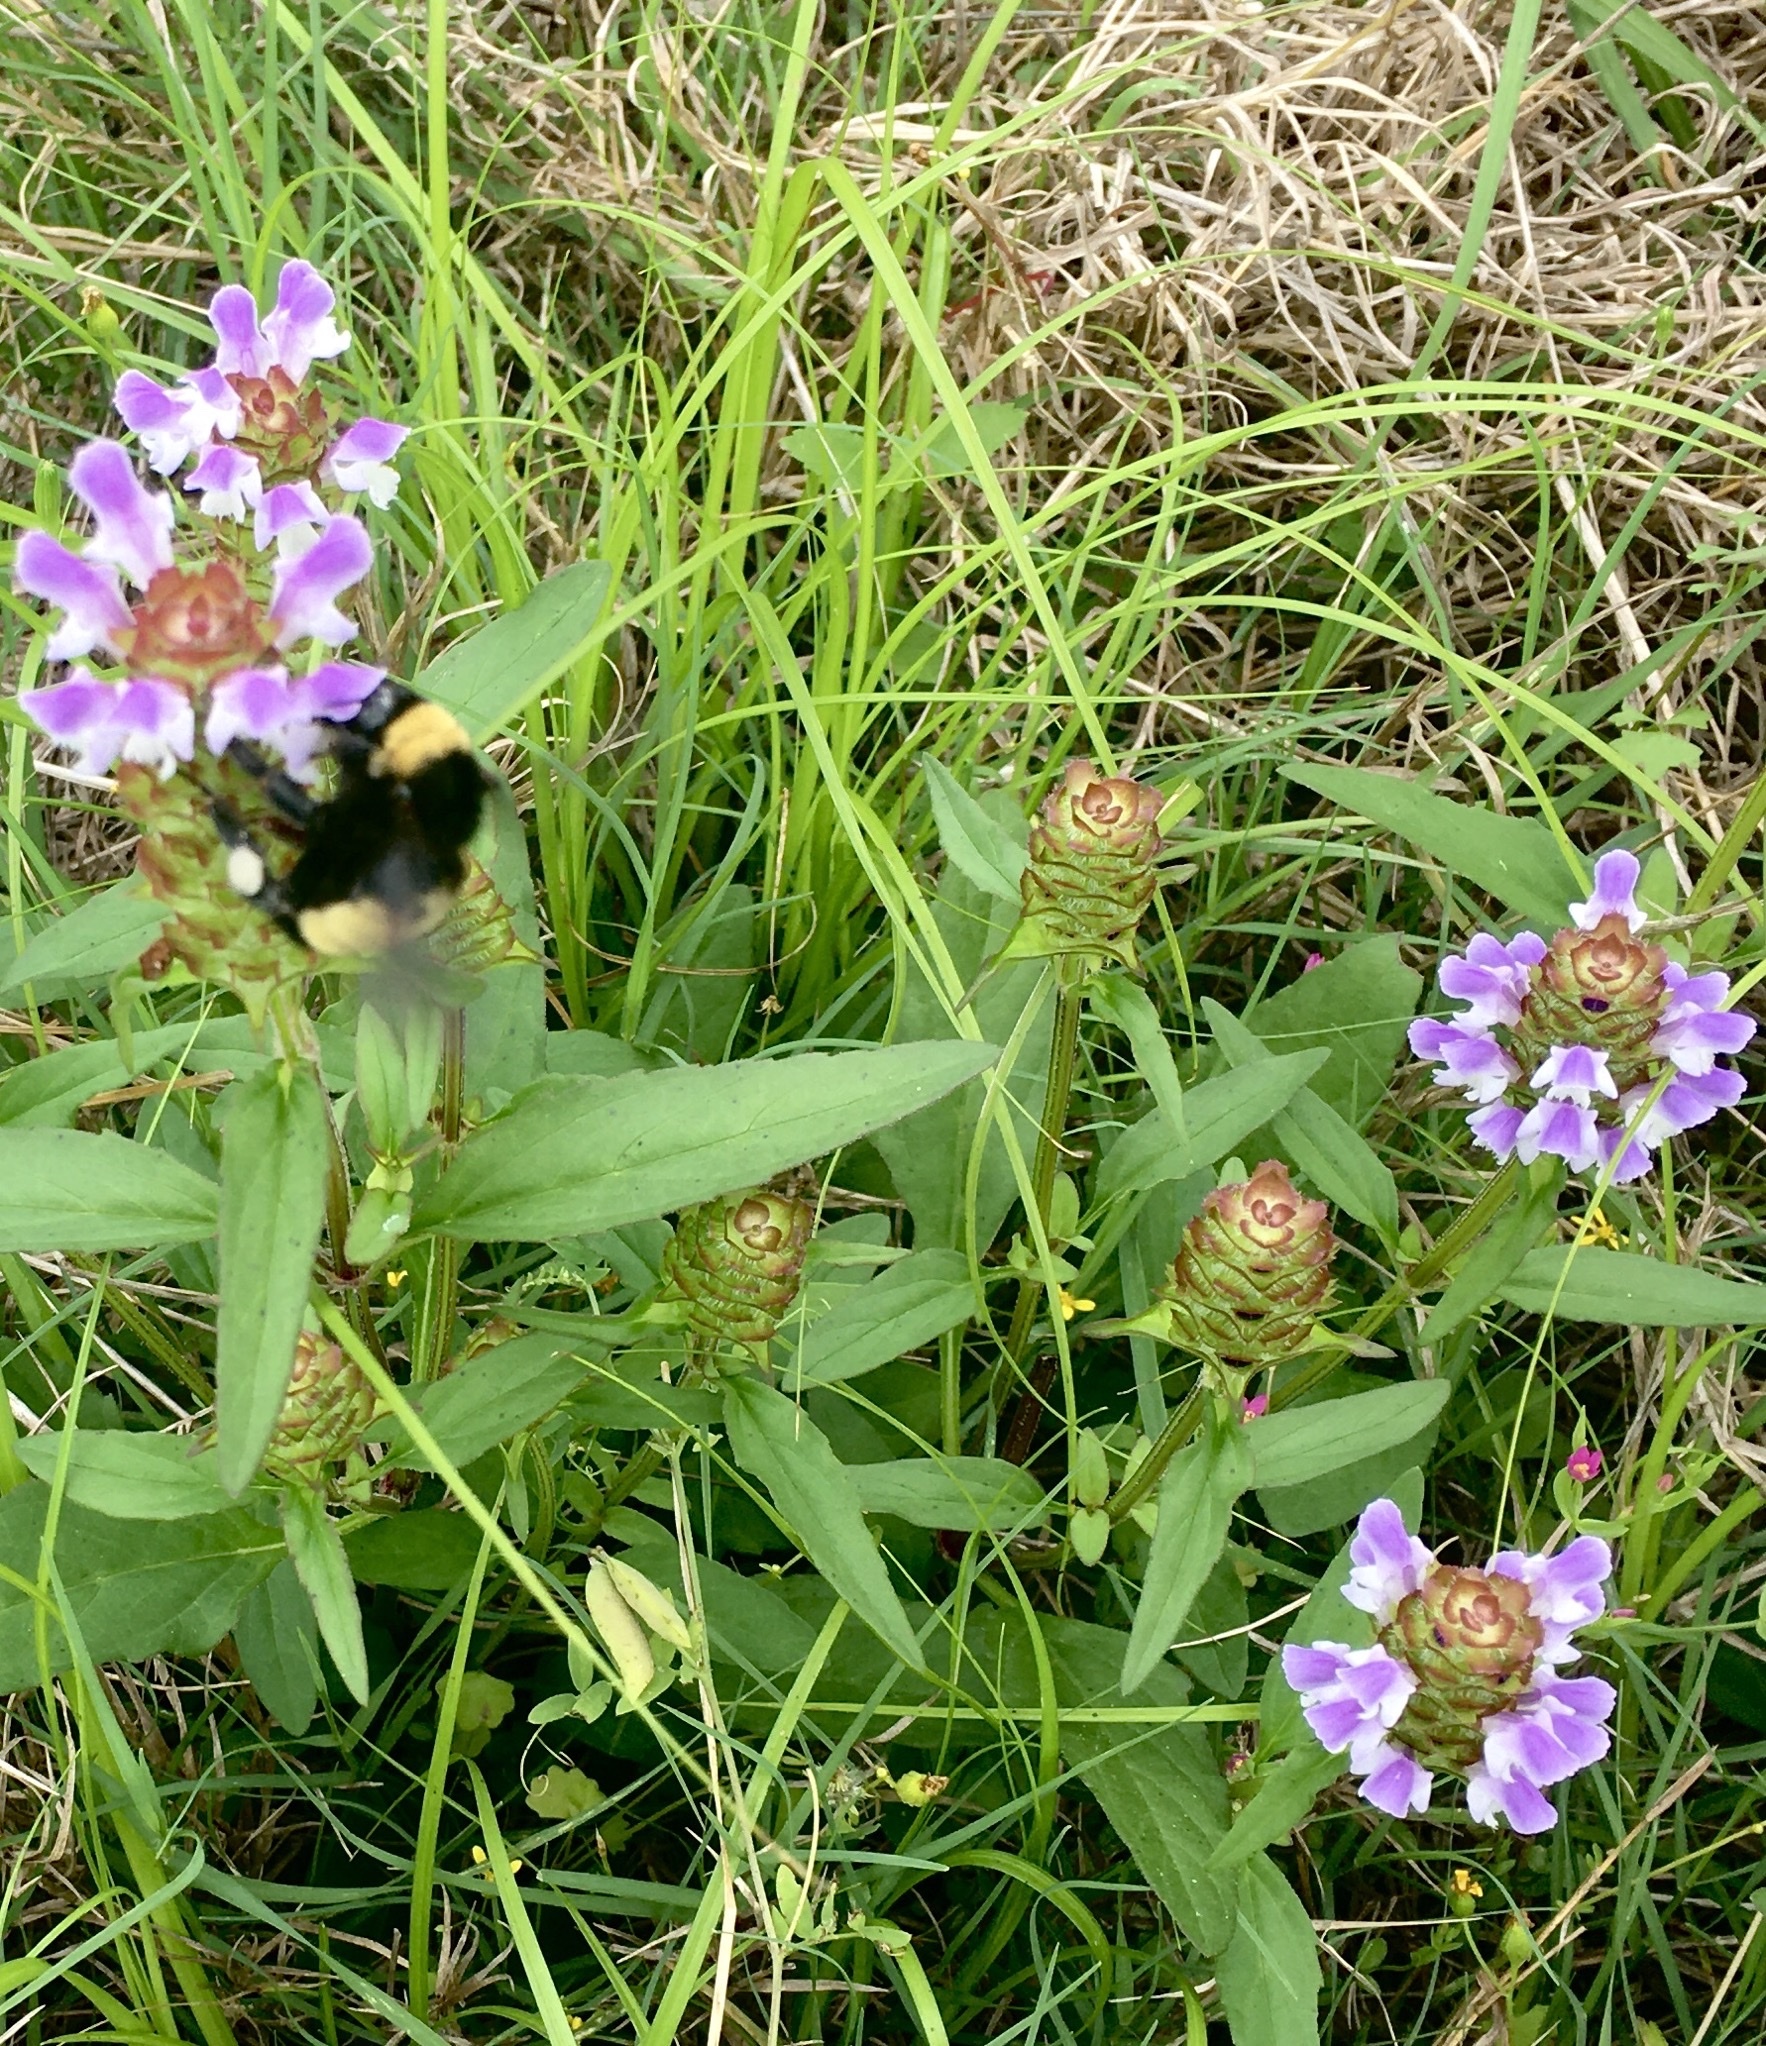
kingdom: Plantae
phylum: Tracheophyta
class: Magnoliopsida
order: Lamiales
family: Lamiaceae
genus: Prunella
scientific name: Prunella vulgaris
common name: Heal-all
